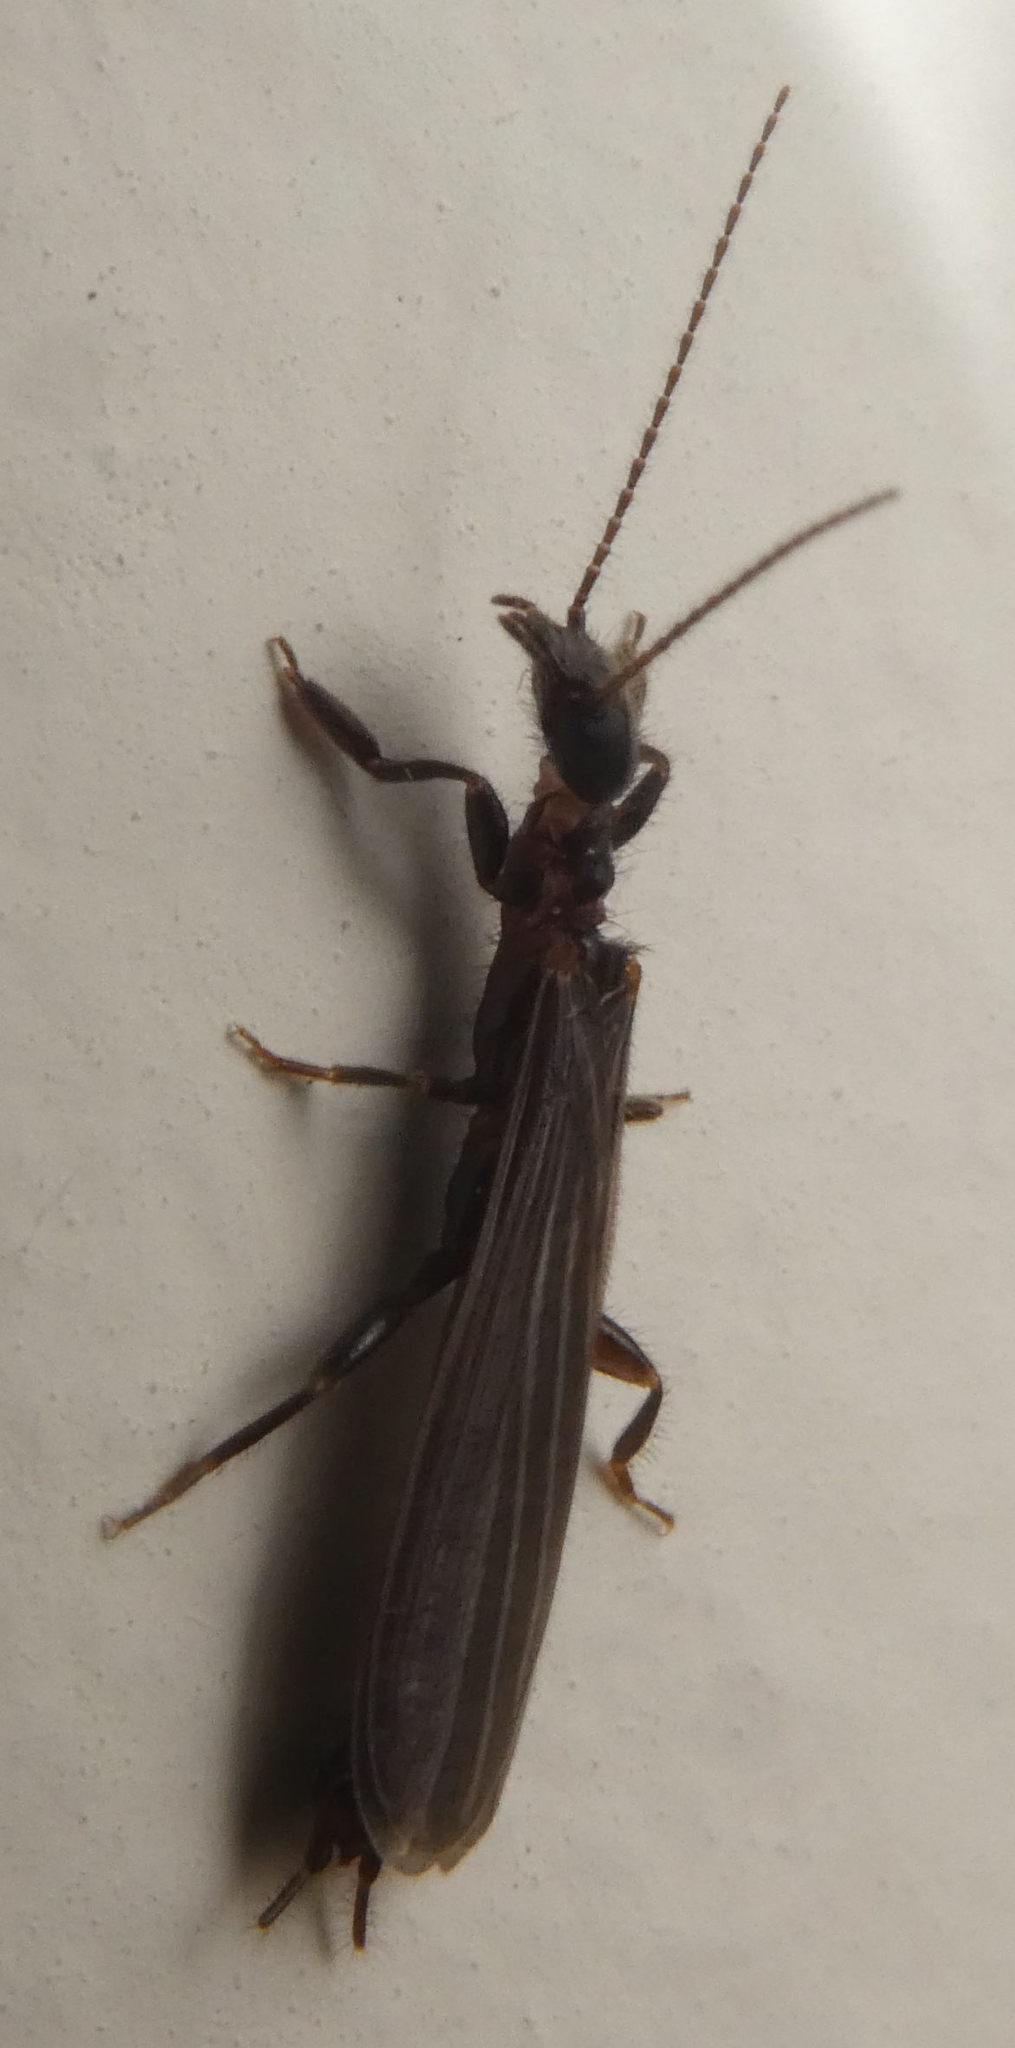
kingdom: Animalia
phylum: Arthropoda
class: Insecta
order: Embioptera
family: Oligotomidae
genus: Oligotoma
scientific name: Oligotoma nigra
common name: Black webspinner
